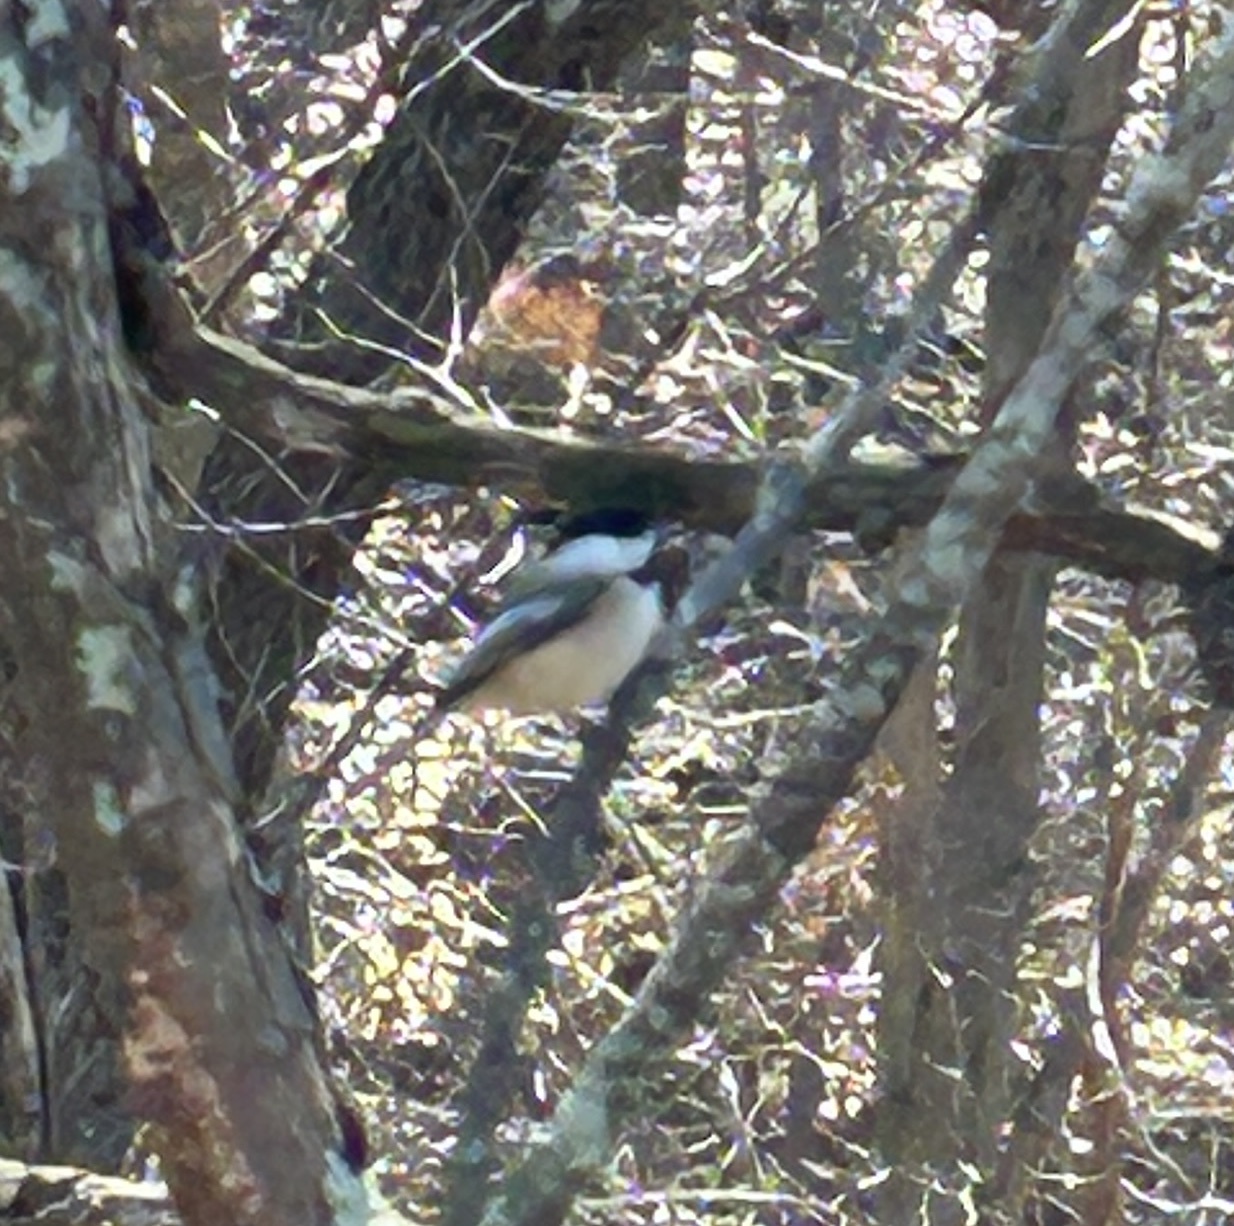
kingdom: Animalia
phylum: Chordata
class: Aves
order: Passeriformes
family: Paridae
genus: Poecile
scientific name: Poecile atricapillus
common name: Black-capped chickadee
